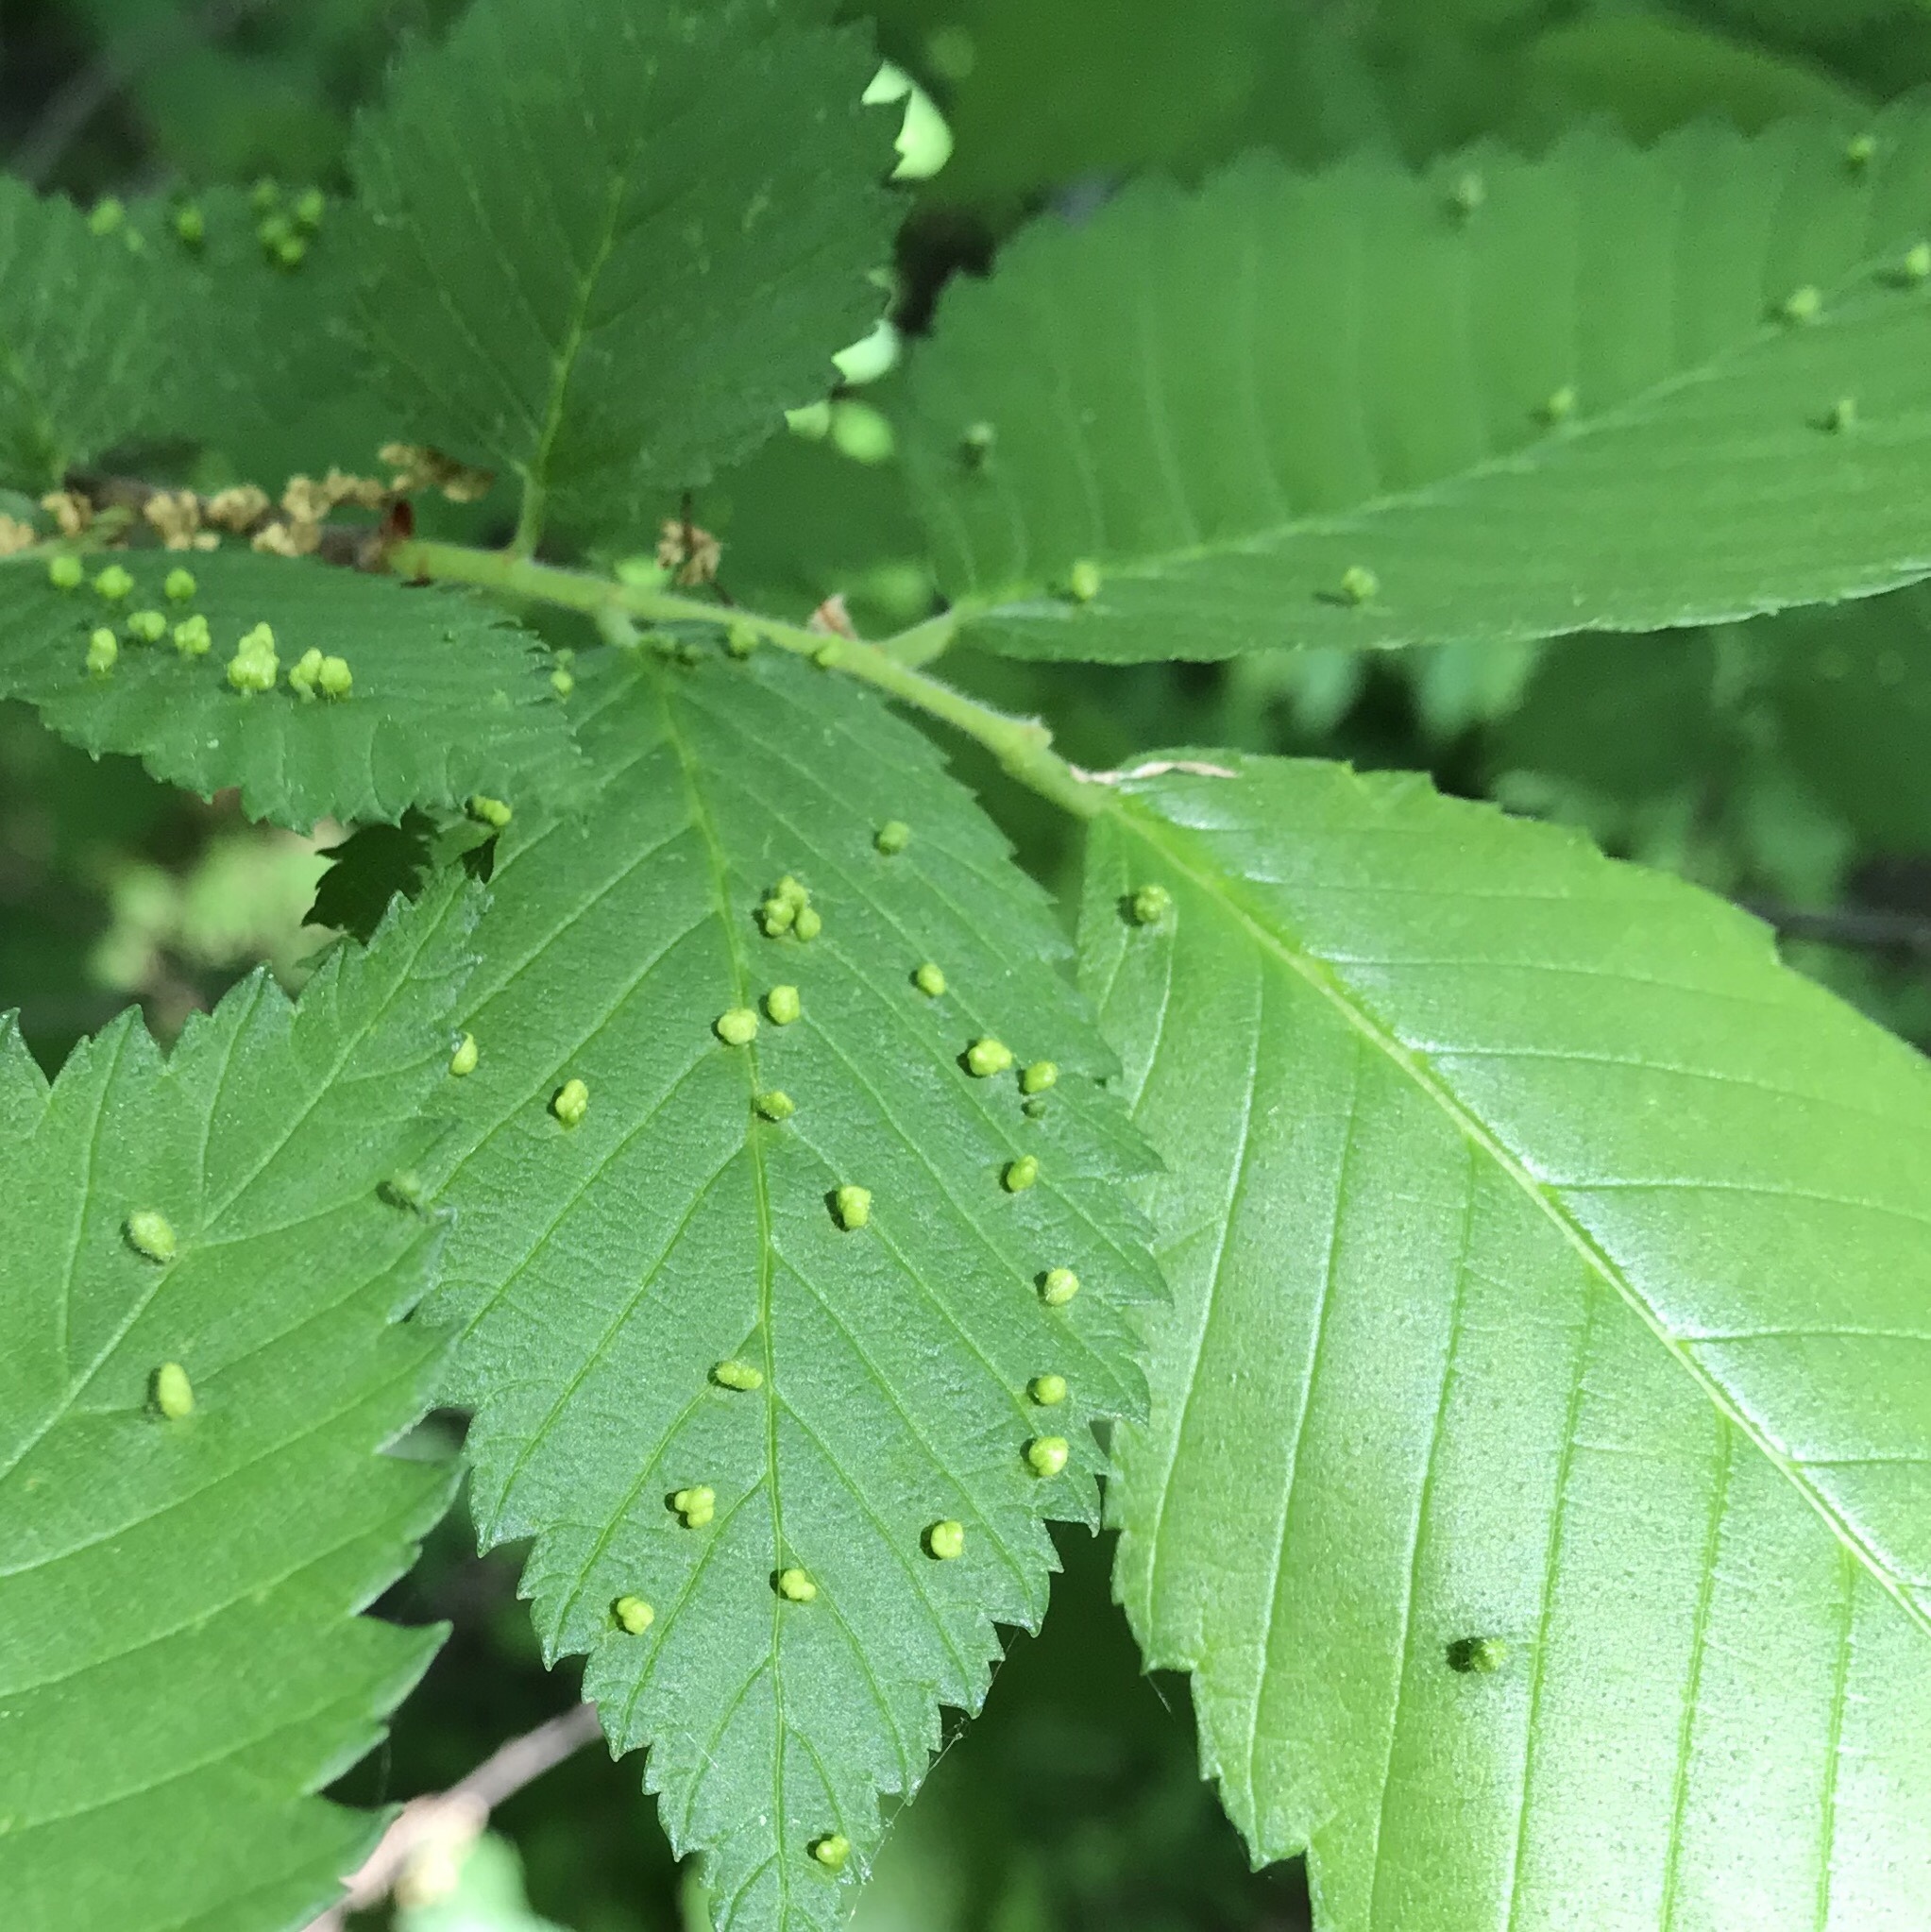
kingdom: Animalia
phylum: Arthropoda
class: Arachnida
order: Trombidiformes
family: Eriophyidae
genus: Aceria
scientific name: Aceria brevipunctata
